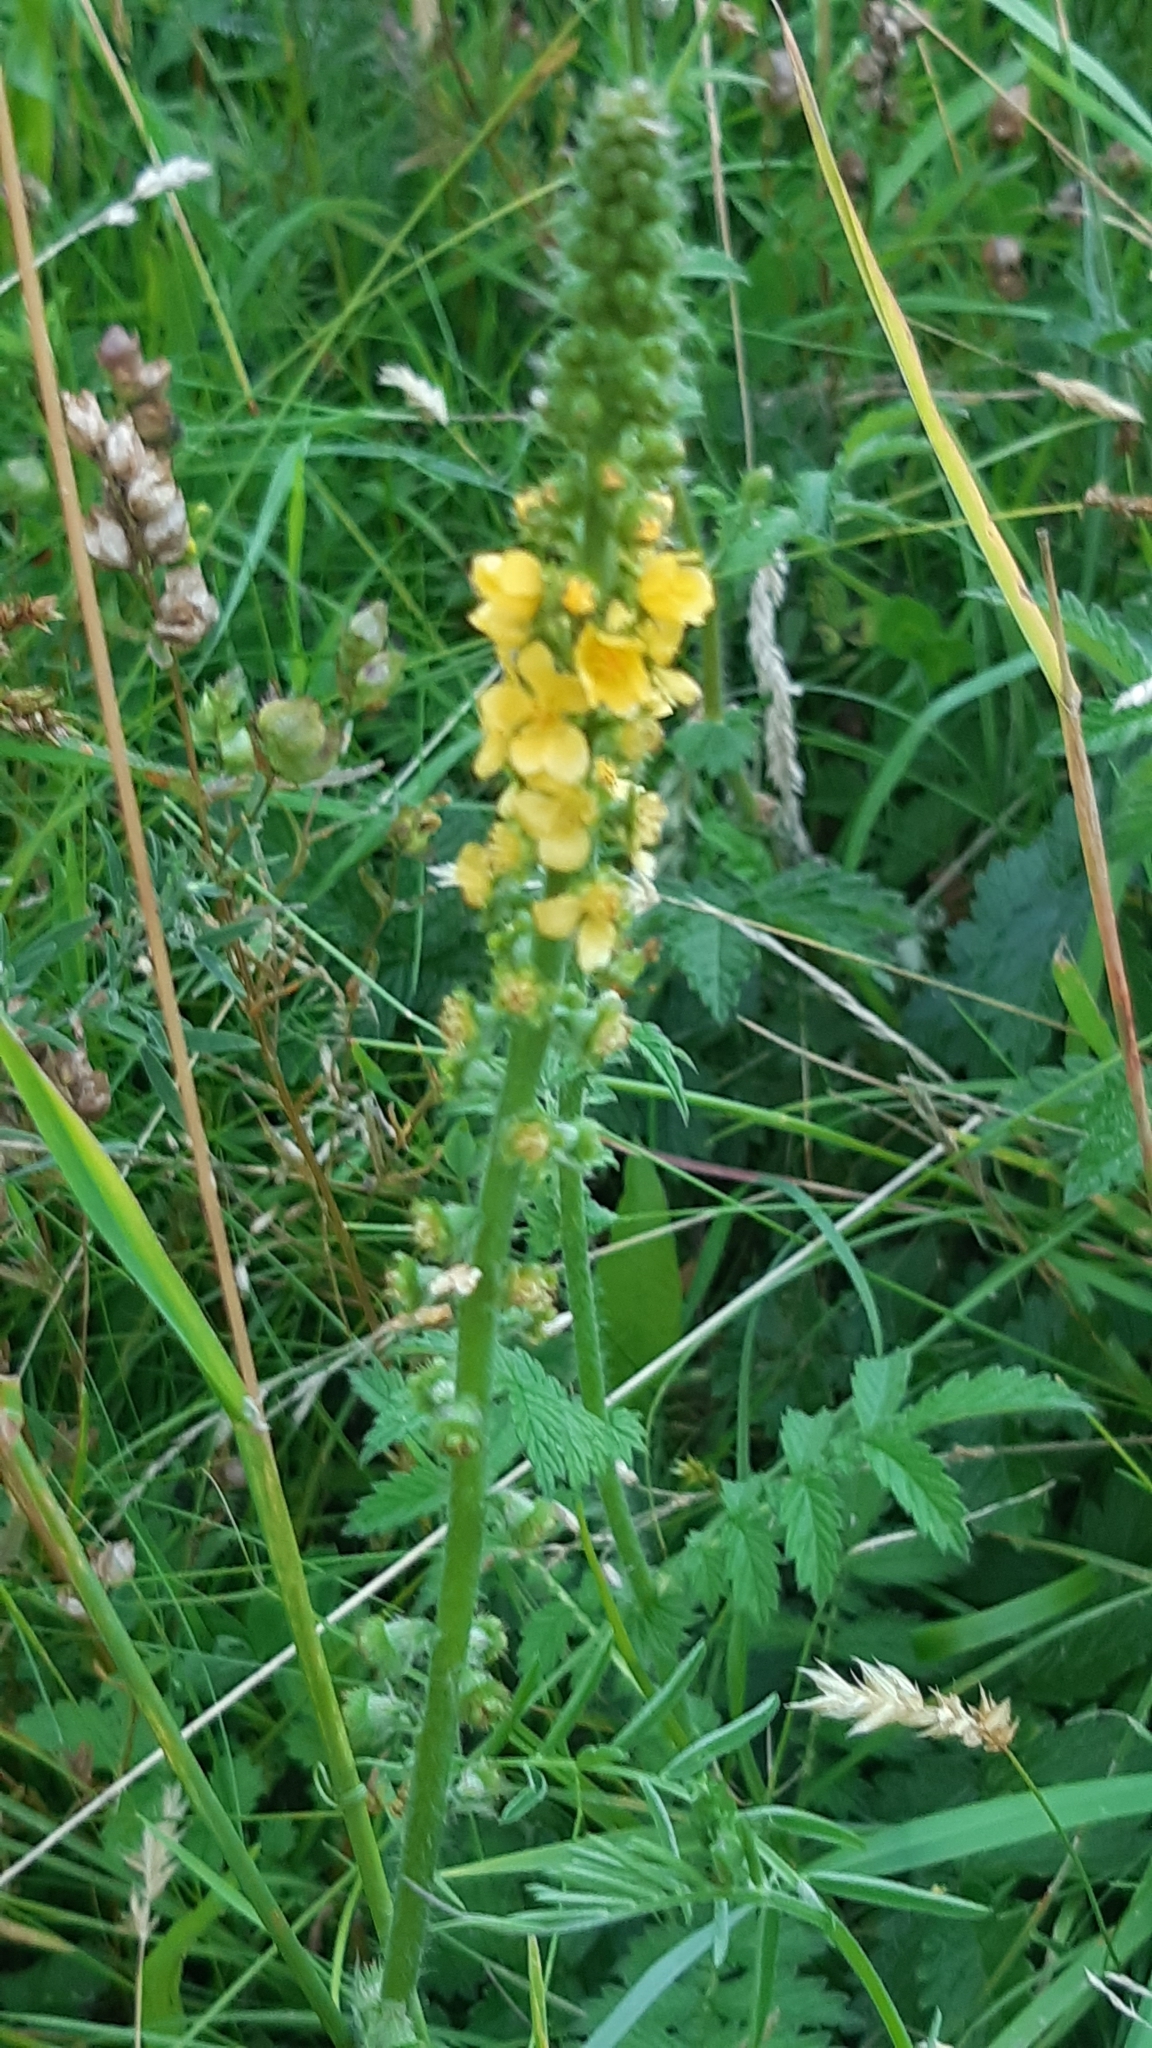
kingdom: Plantae
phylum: Tracheophyta
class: Magnoliopsida
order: Rosales
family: Rosaceae
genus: Agrimonia
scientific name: Agrimonia eupatoria
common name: Agrimony
